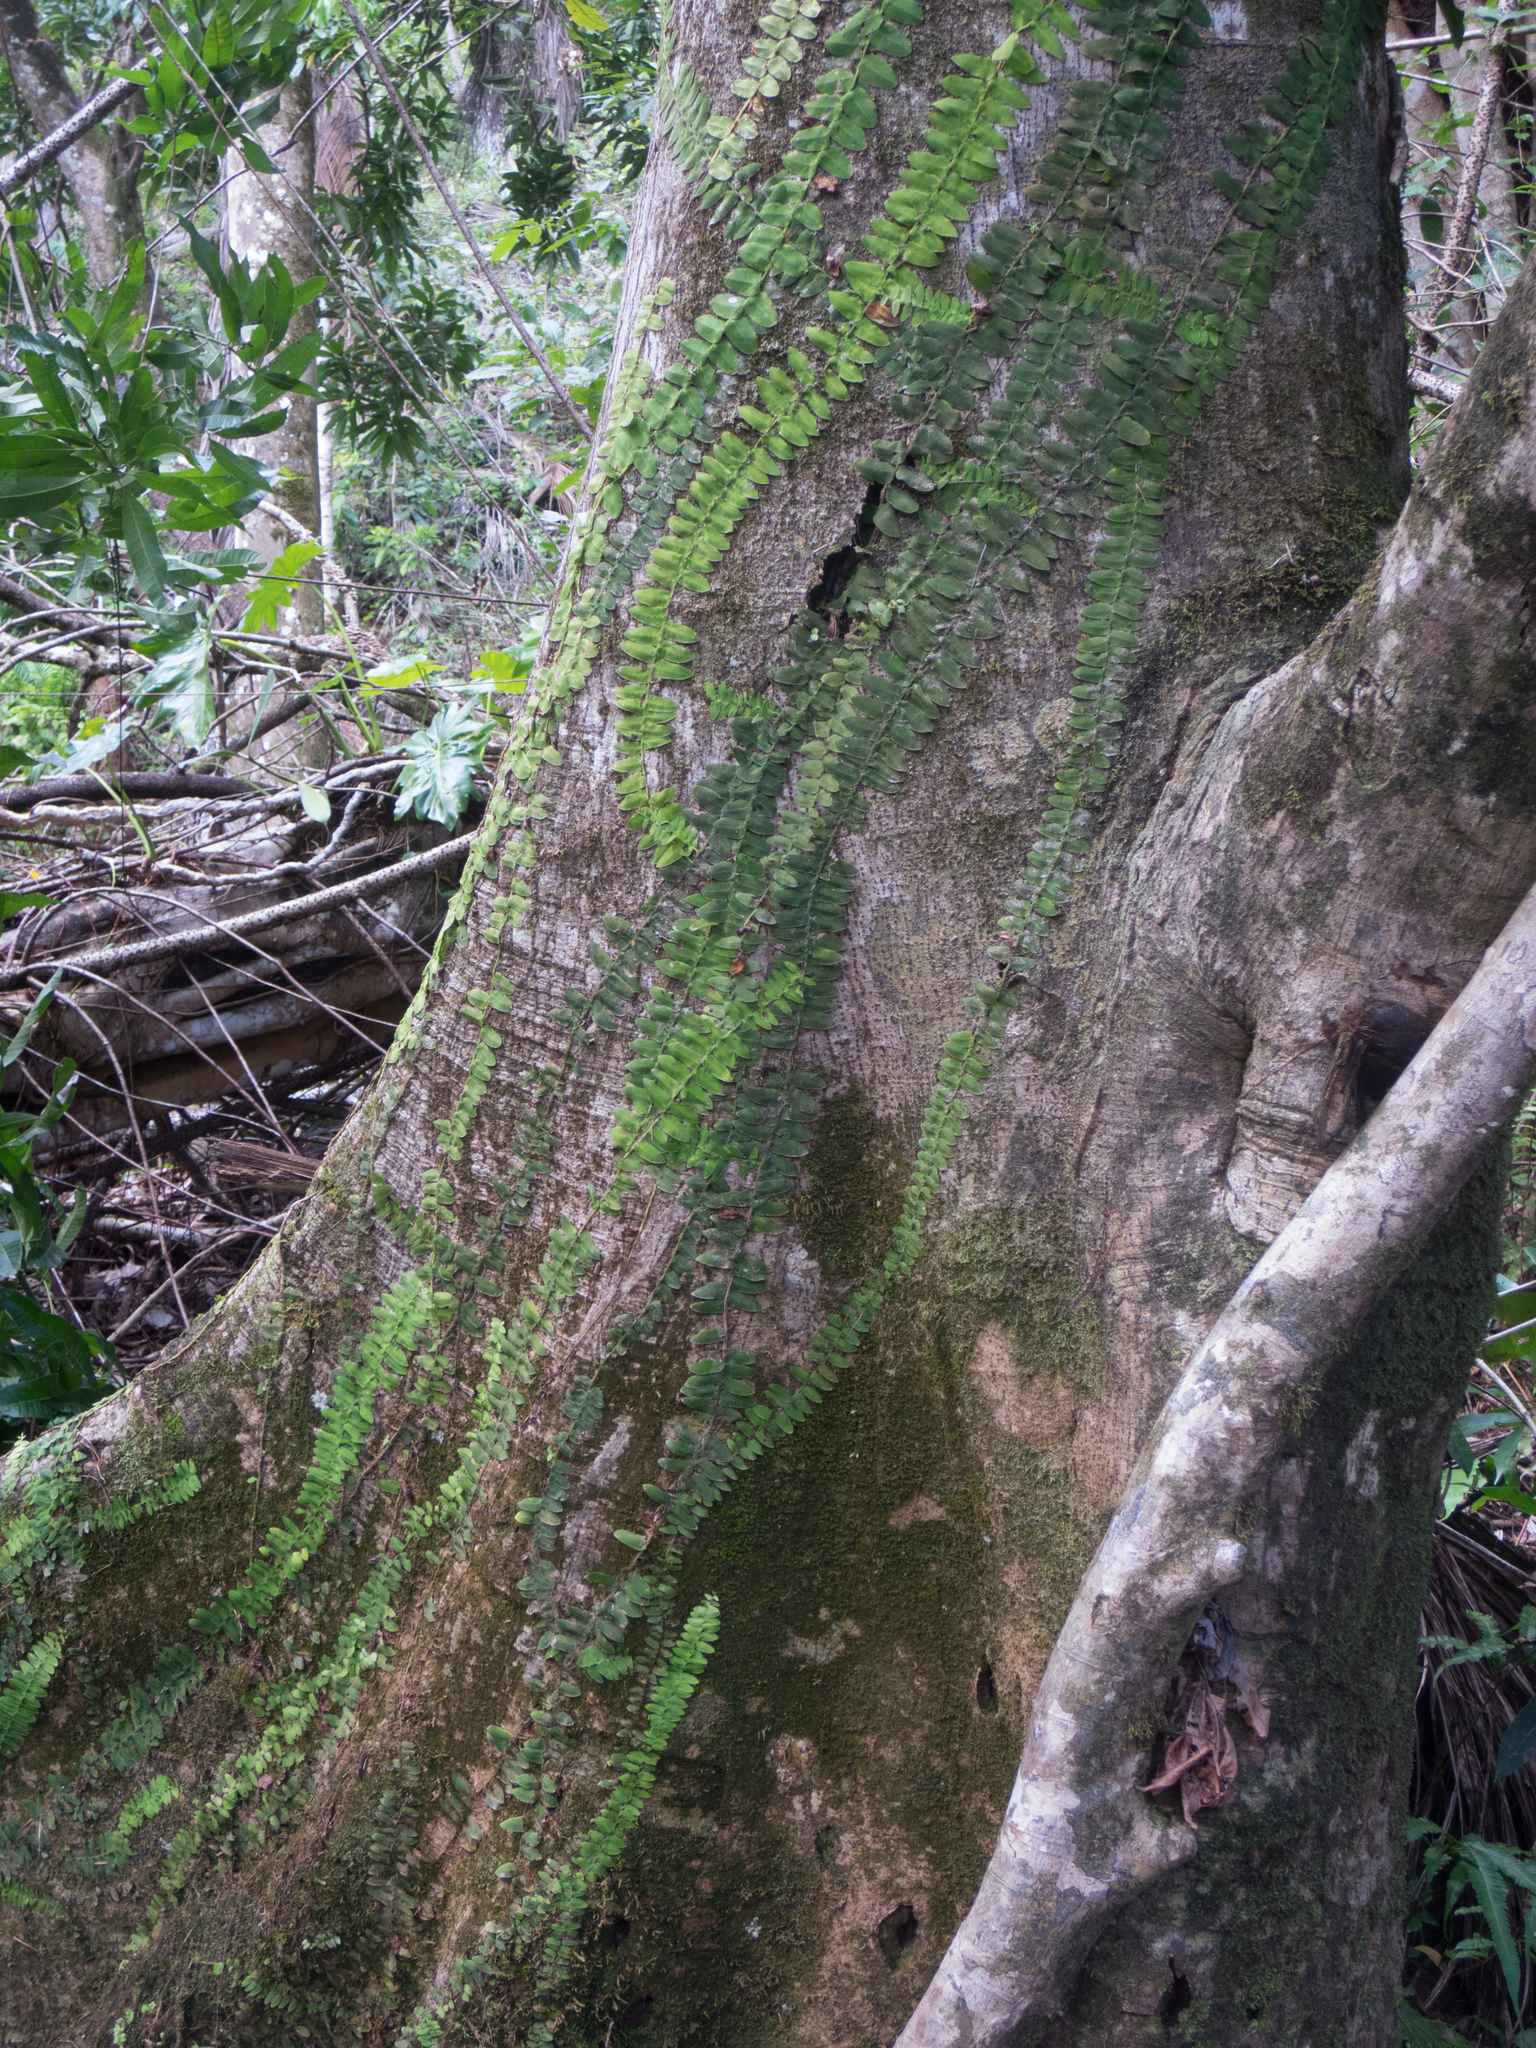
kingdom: Plantae
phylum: Tracheophyta
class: Magnoliopsida
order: Ericales
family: Marcgraviaceae
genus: Marcgravia
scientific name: Marcgravia
